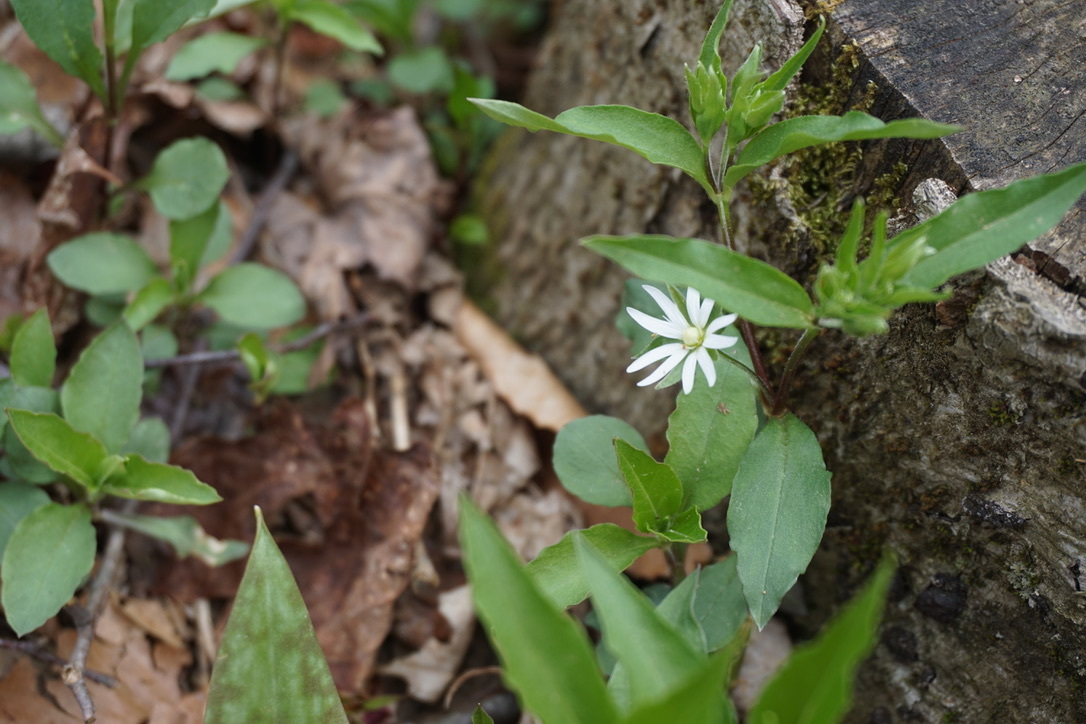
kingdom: Plantae
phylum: Tracheophyta
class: Magnoliopsida
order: Caryophyllales
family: Caryophyllaceae
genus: Stellaria
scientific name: Stellaria pubera
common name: Star chickweed
